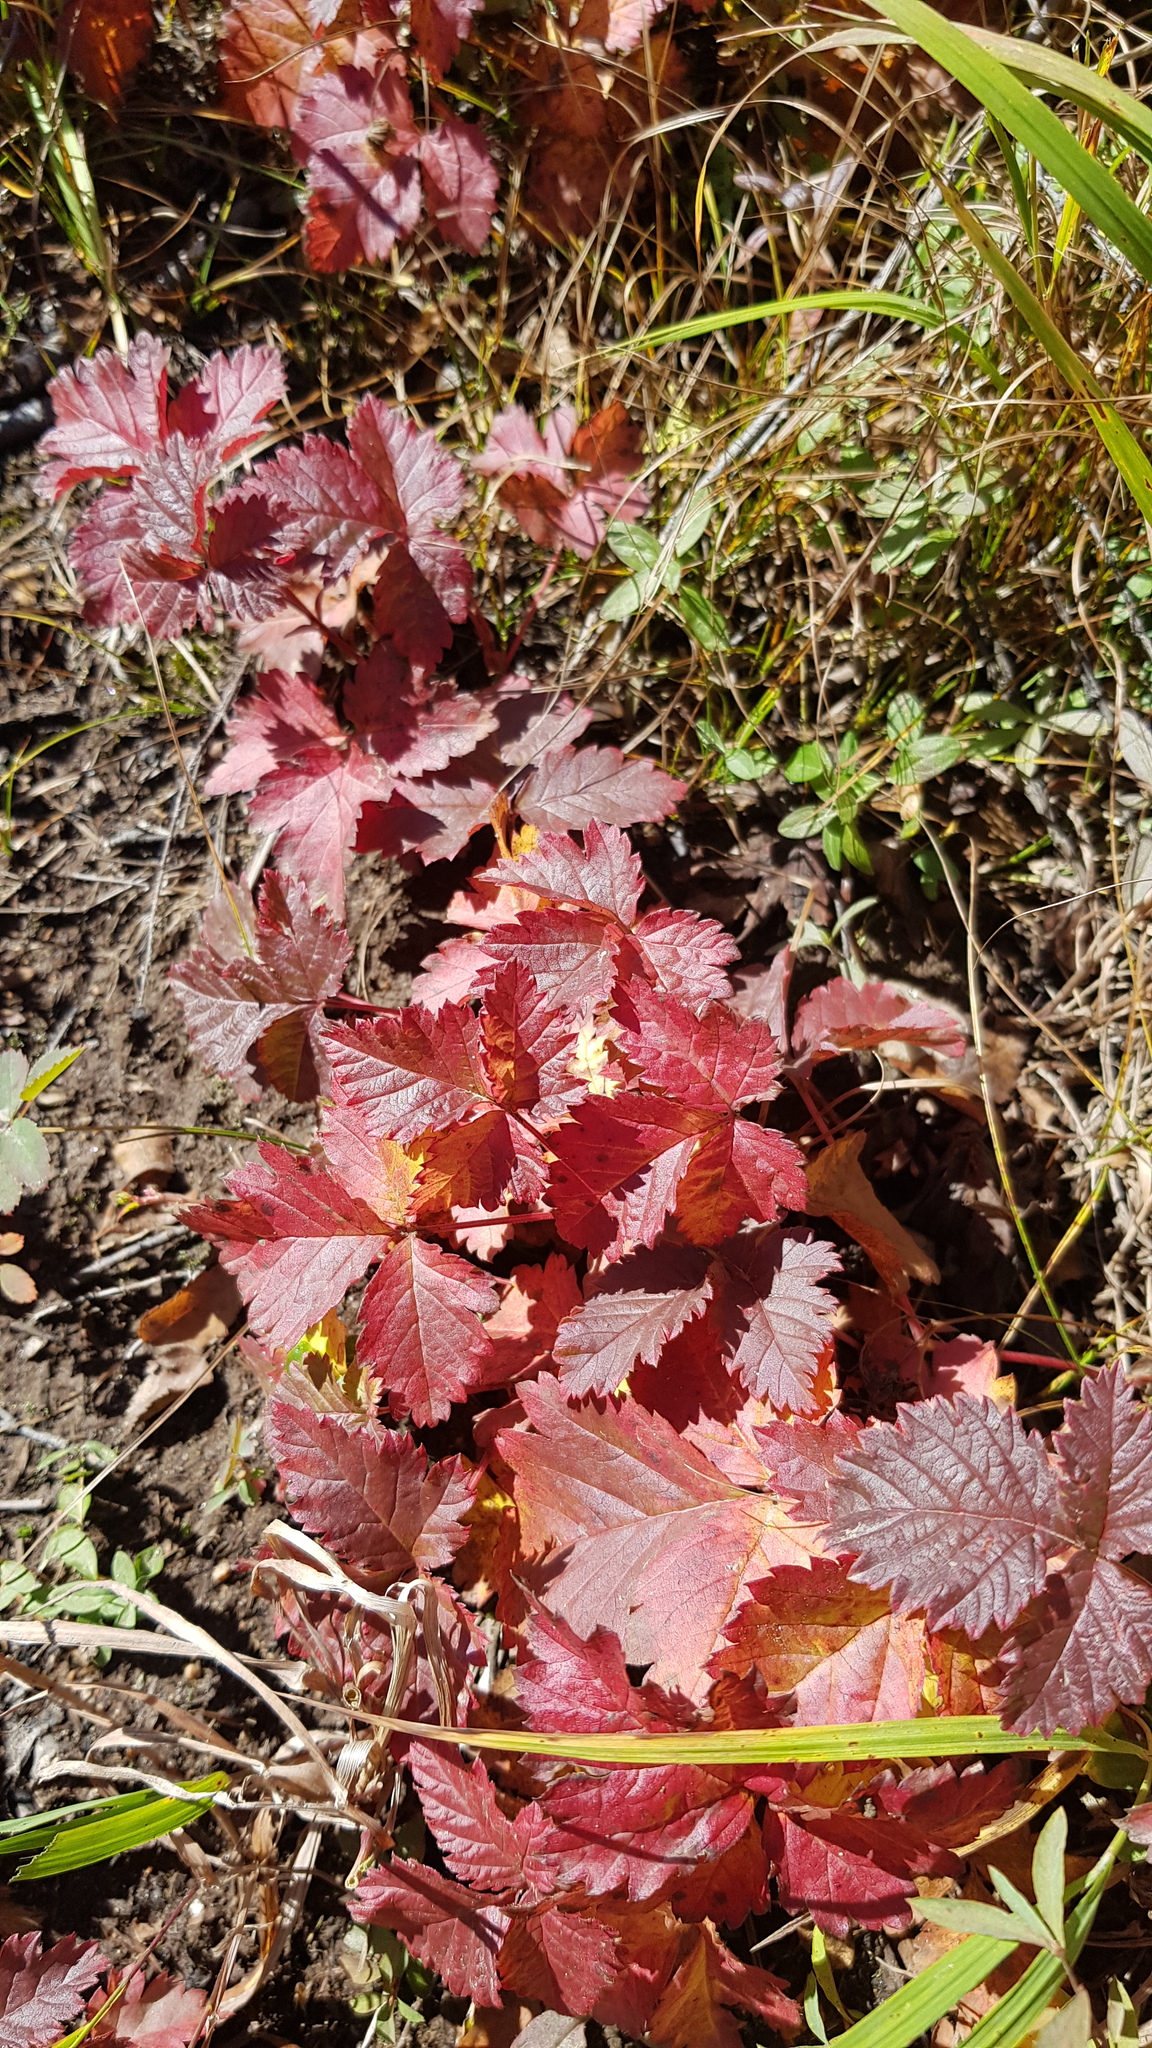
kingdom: Plantae
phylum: Tracheophyta
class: Magnoliopsida
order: Rosales
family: Rosaceae
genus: Rubus
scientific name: Rubus arcticus
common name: Arctic bramble
